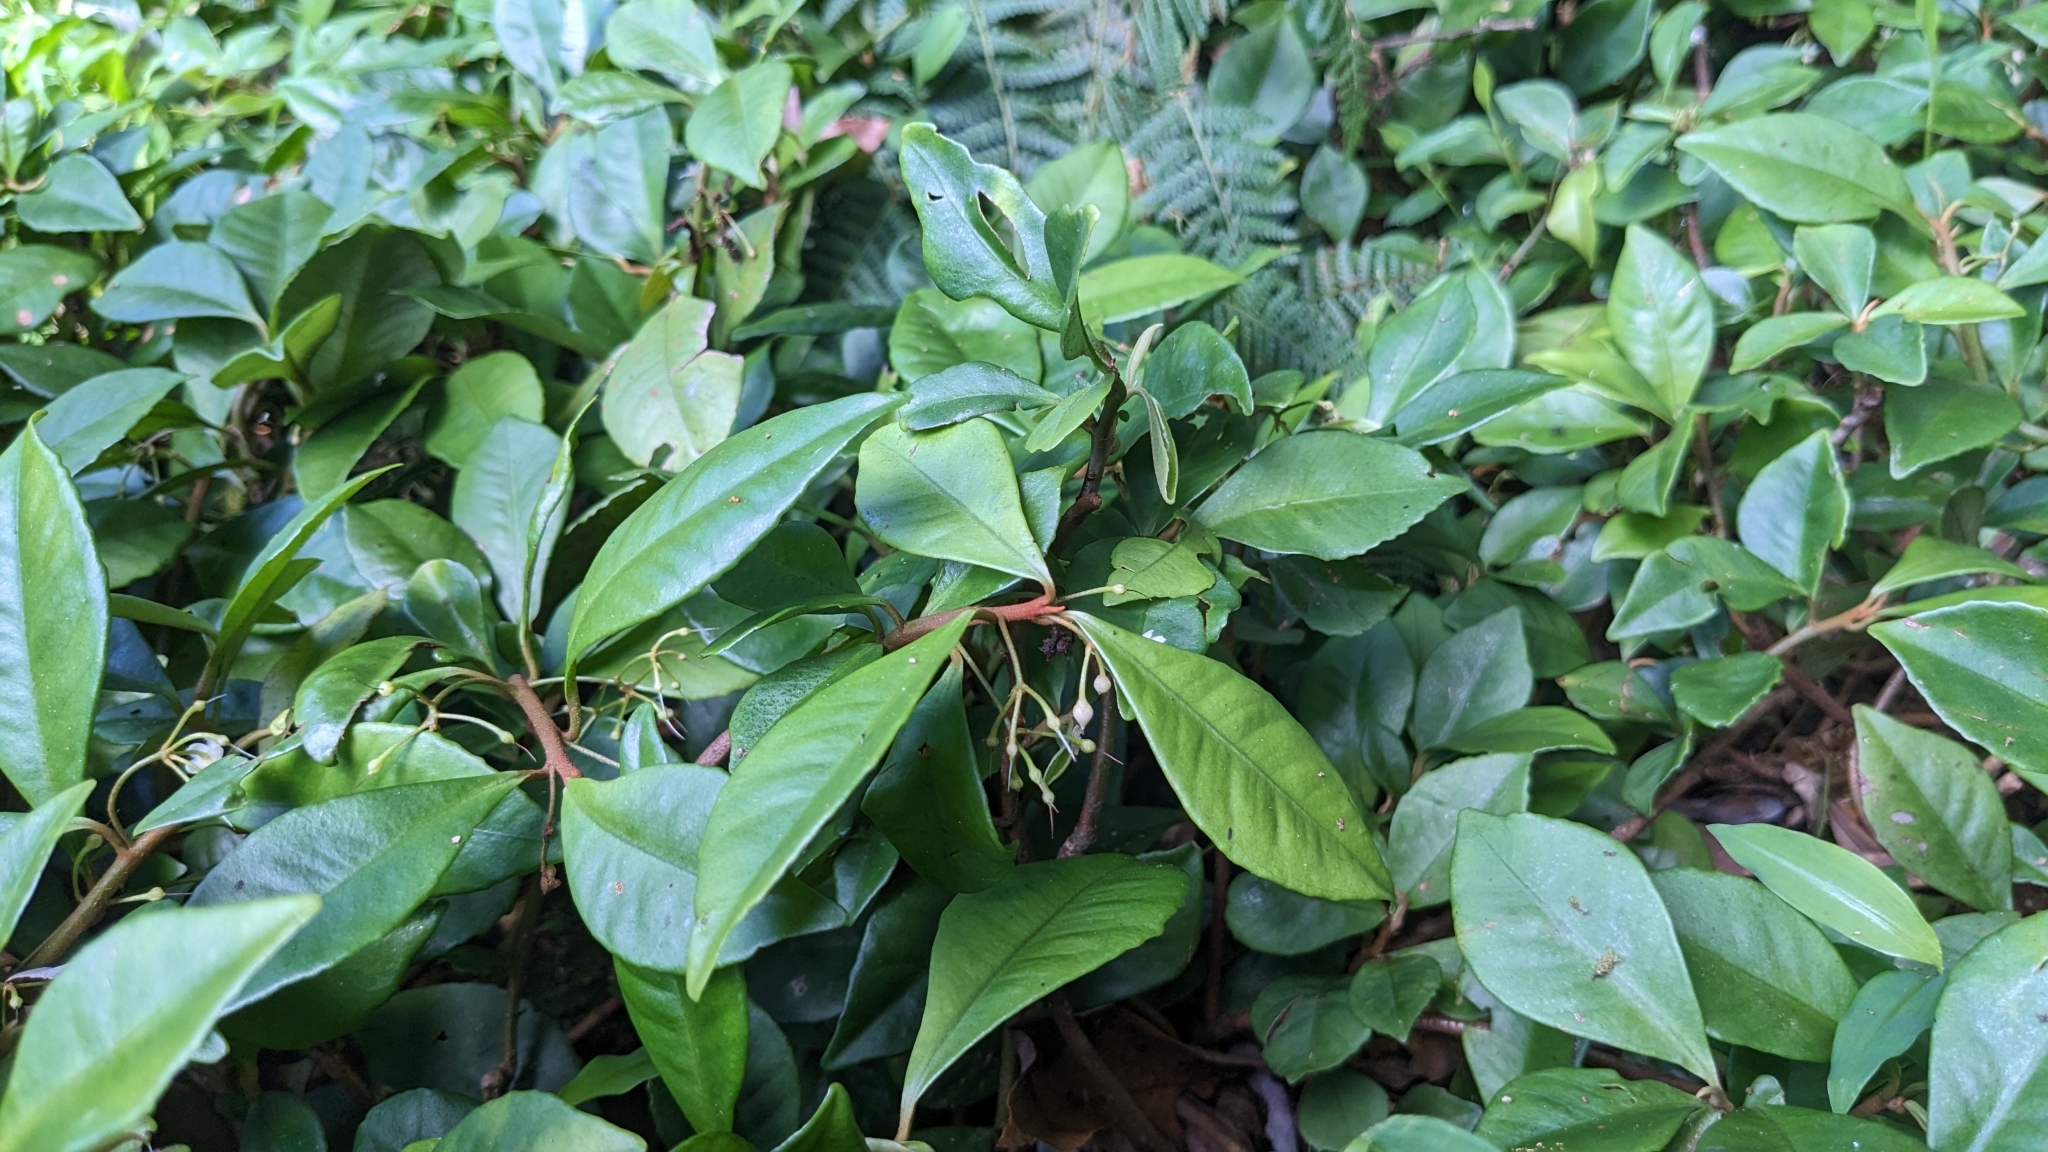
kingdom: Plantae
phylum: Tracheophyta
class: Magnoliopsida
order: Ericales
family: Primulaceae
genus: Ardisia
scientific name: Ardisia cymosa
